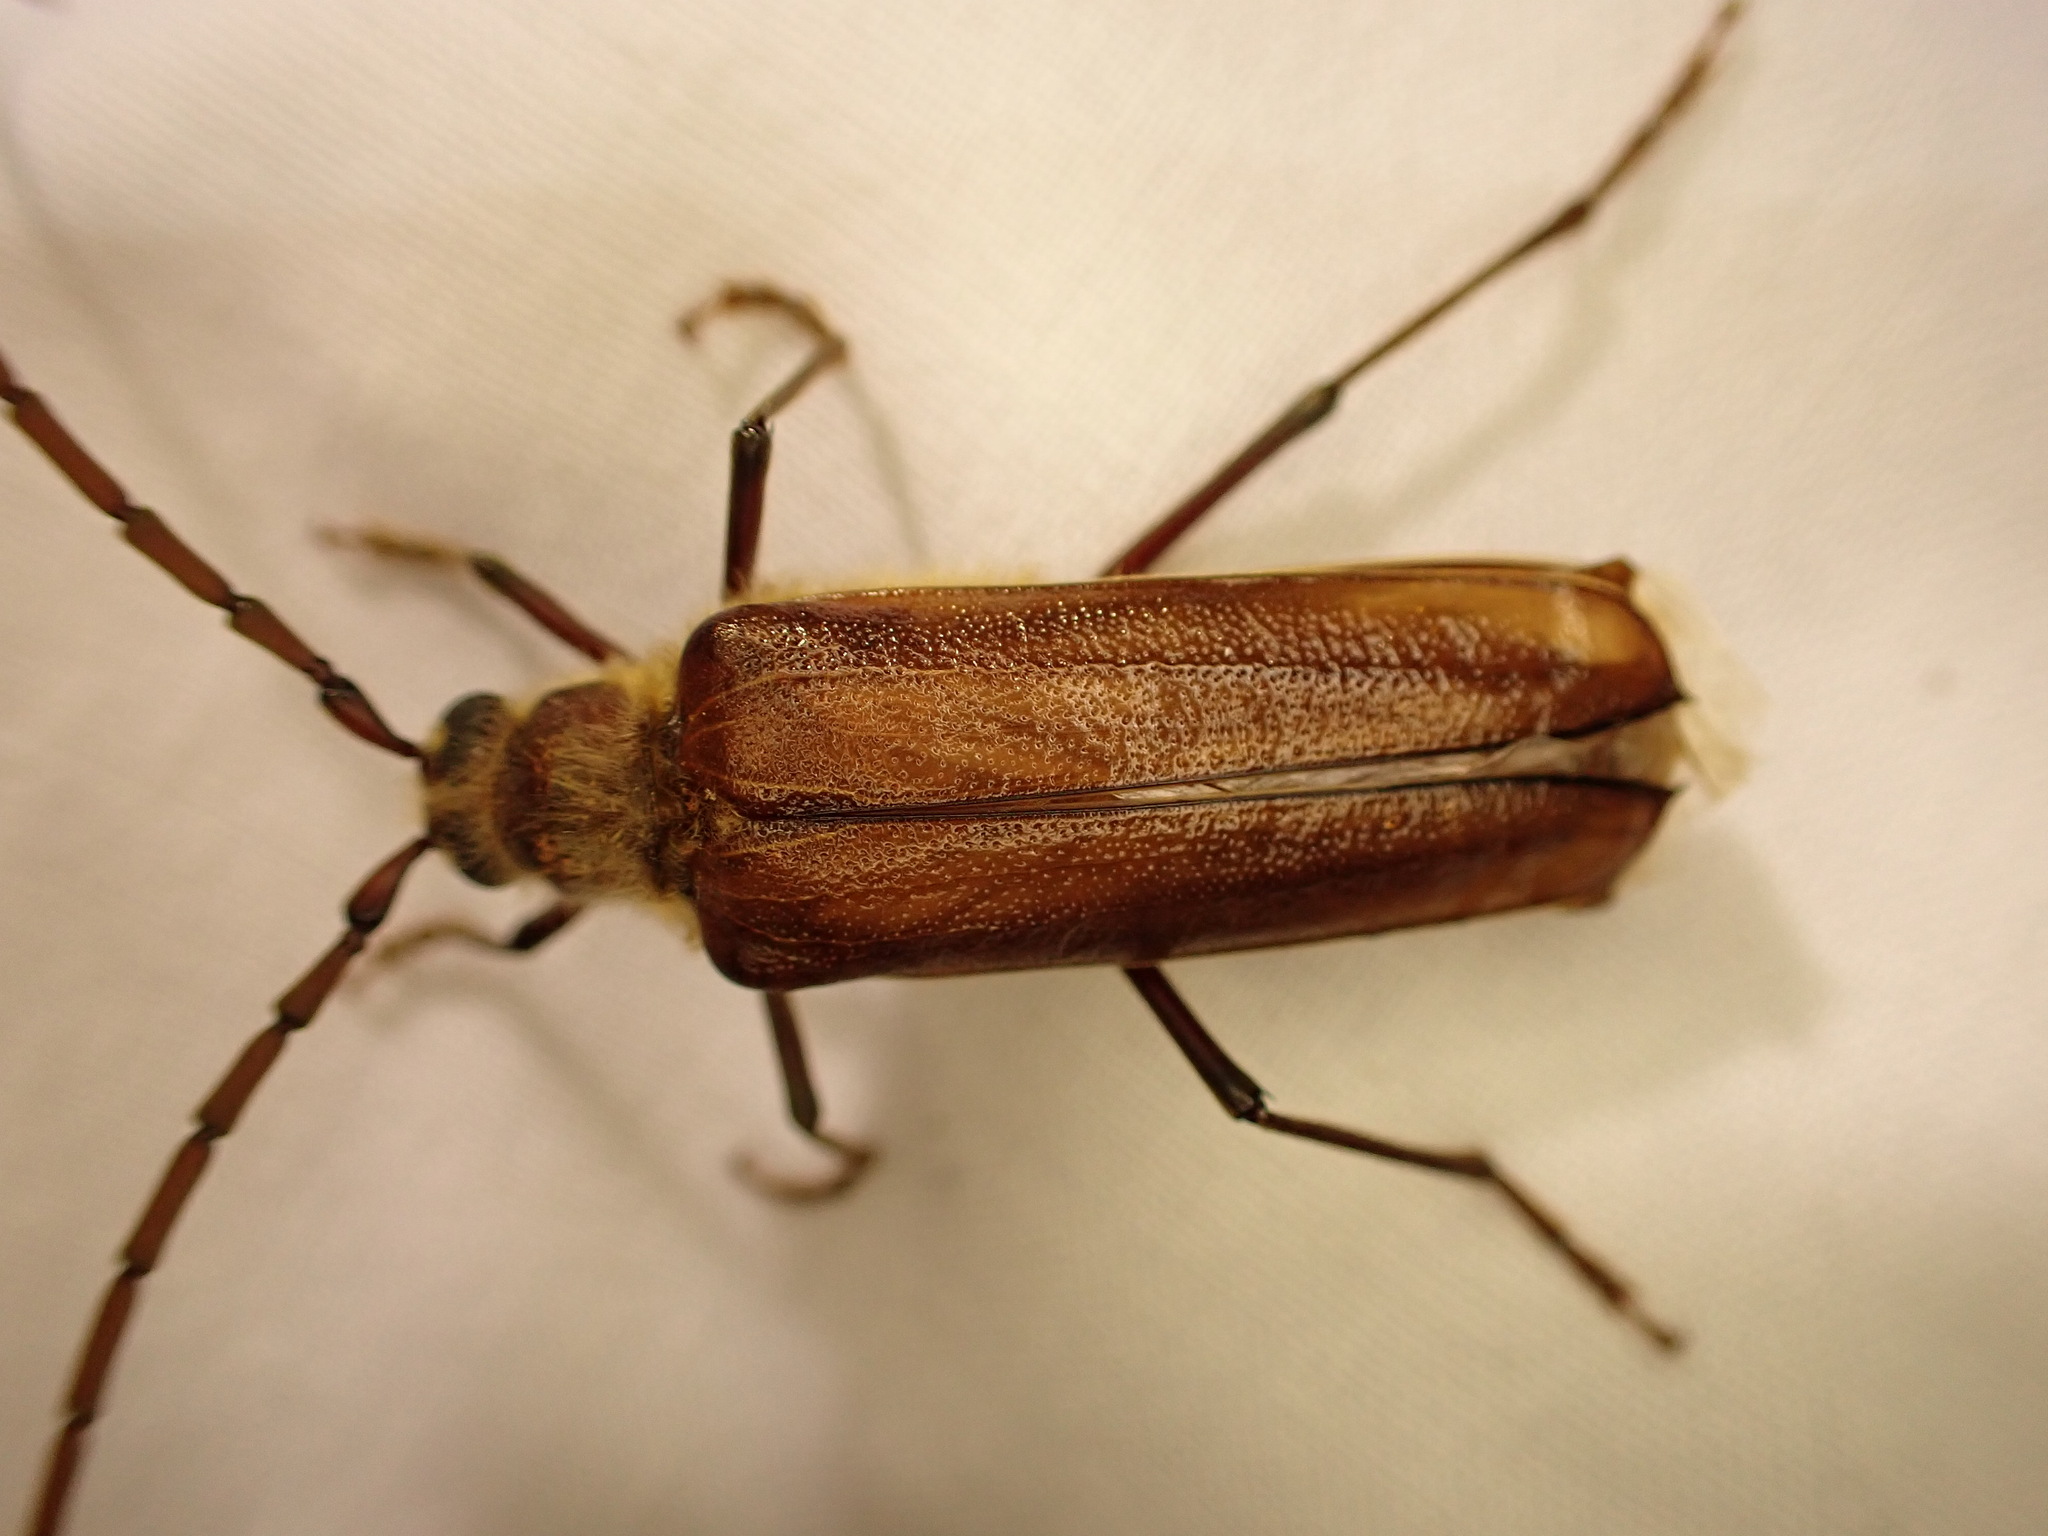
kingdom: Animalia
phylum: Arthropoda
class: Insecta
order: Coleoptera
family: Cerambycidae
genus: Ochrocydus
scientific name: Ochrocydus huttoni
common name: Kanuka longhorn
